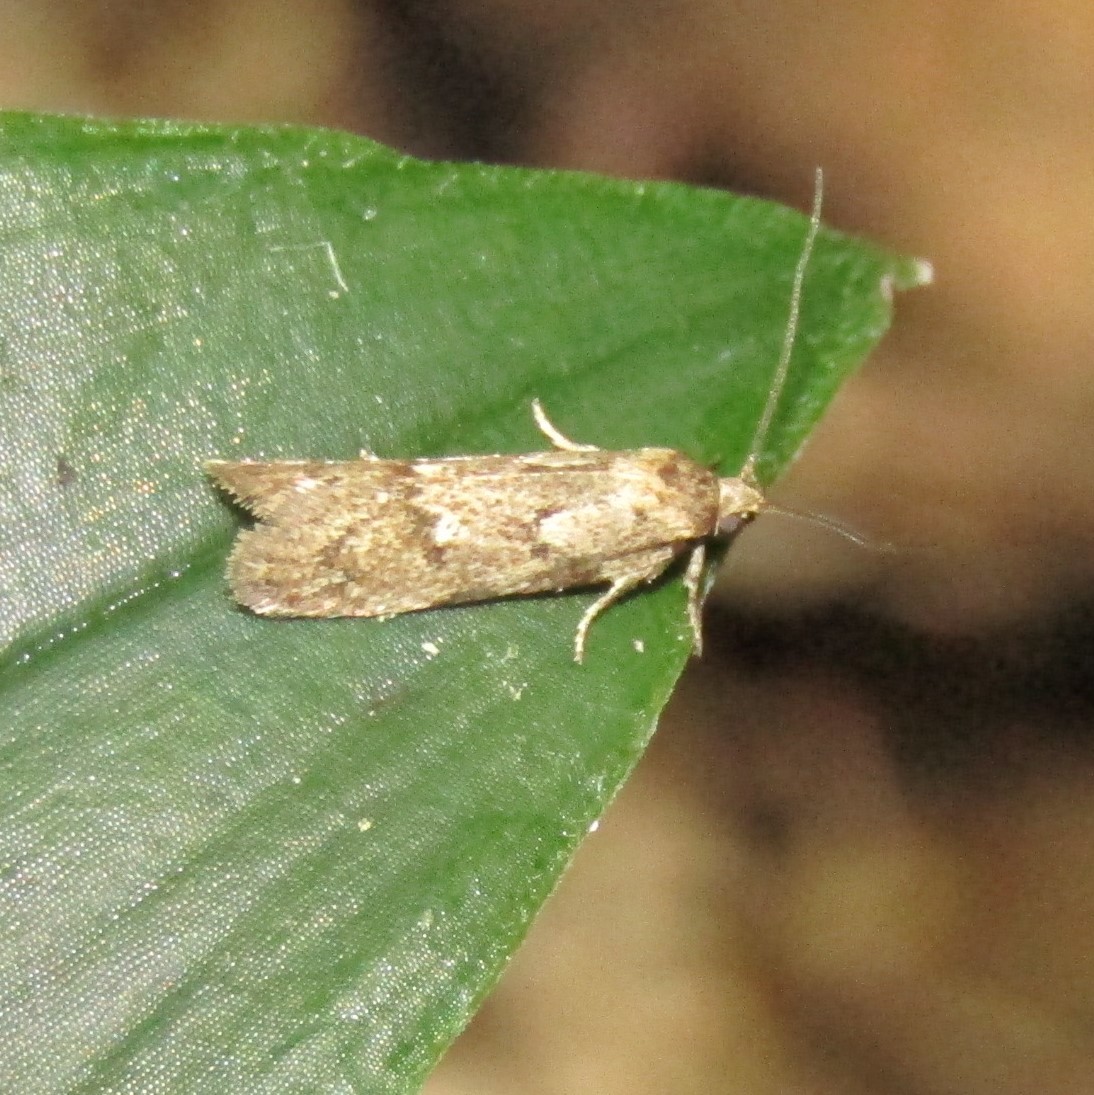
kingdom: Animalia
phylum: Arthropoda
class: Insecta
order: Lepidoptera
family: Oecophoridae
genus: Chersadaula
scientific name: Chersadaula ochrogastra
